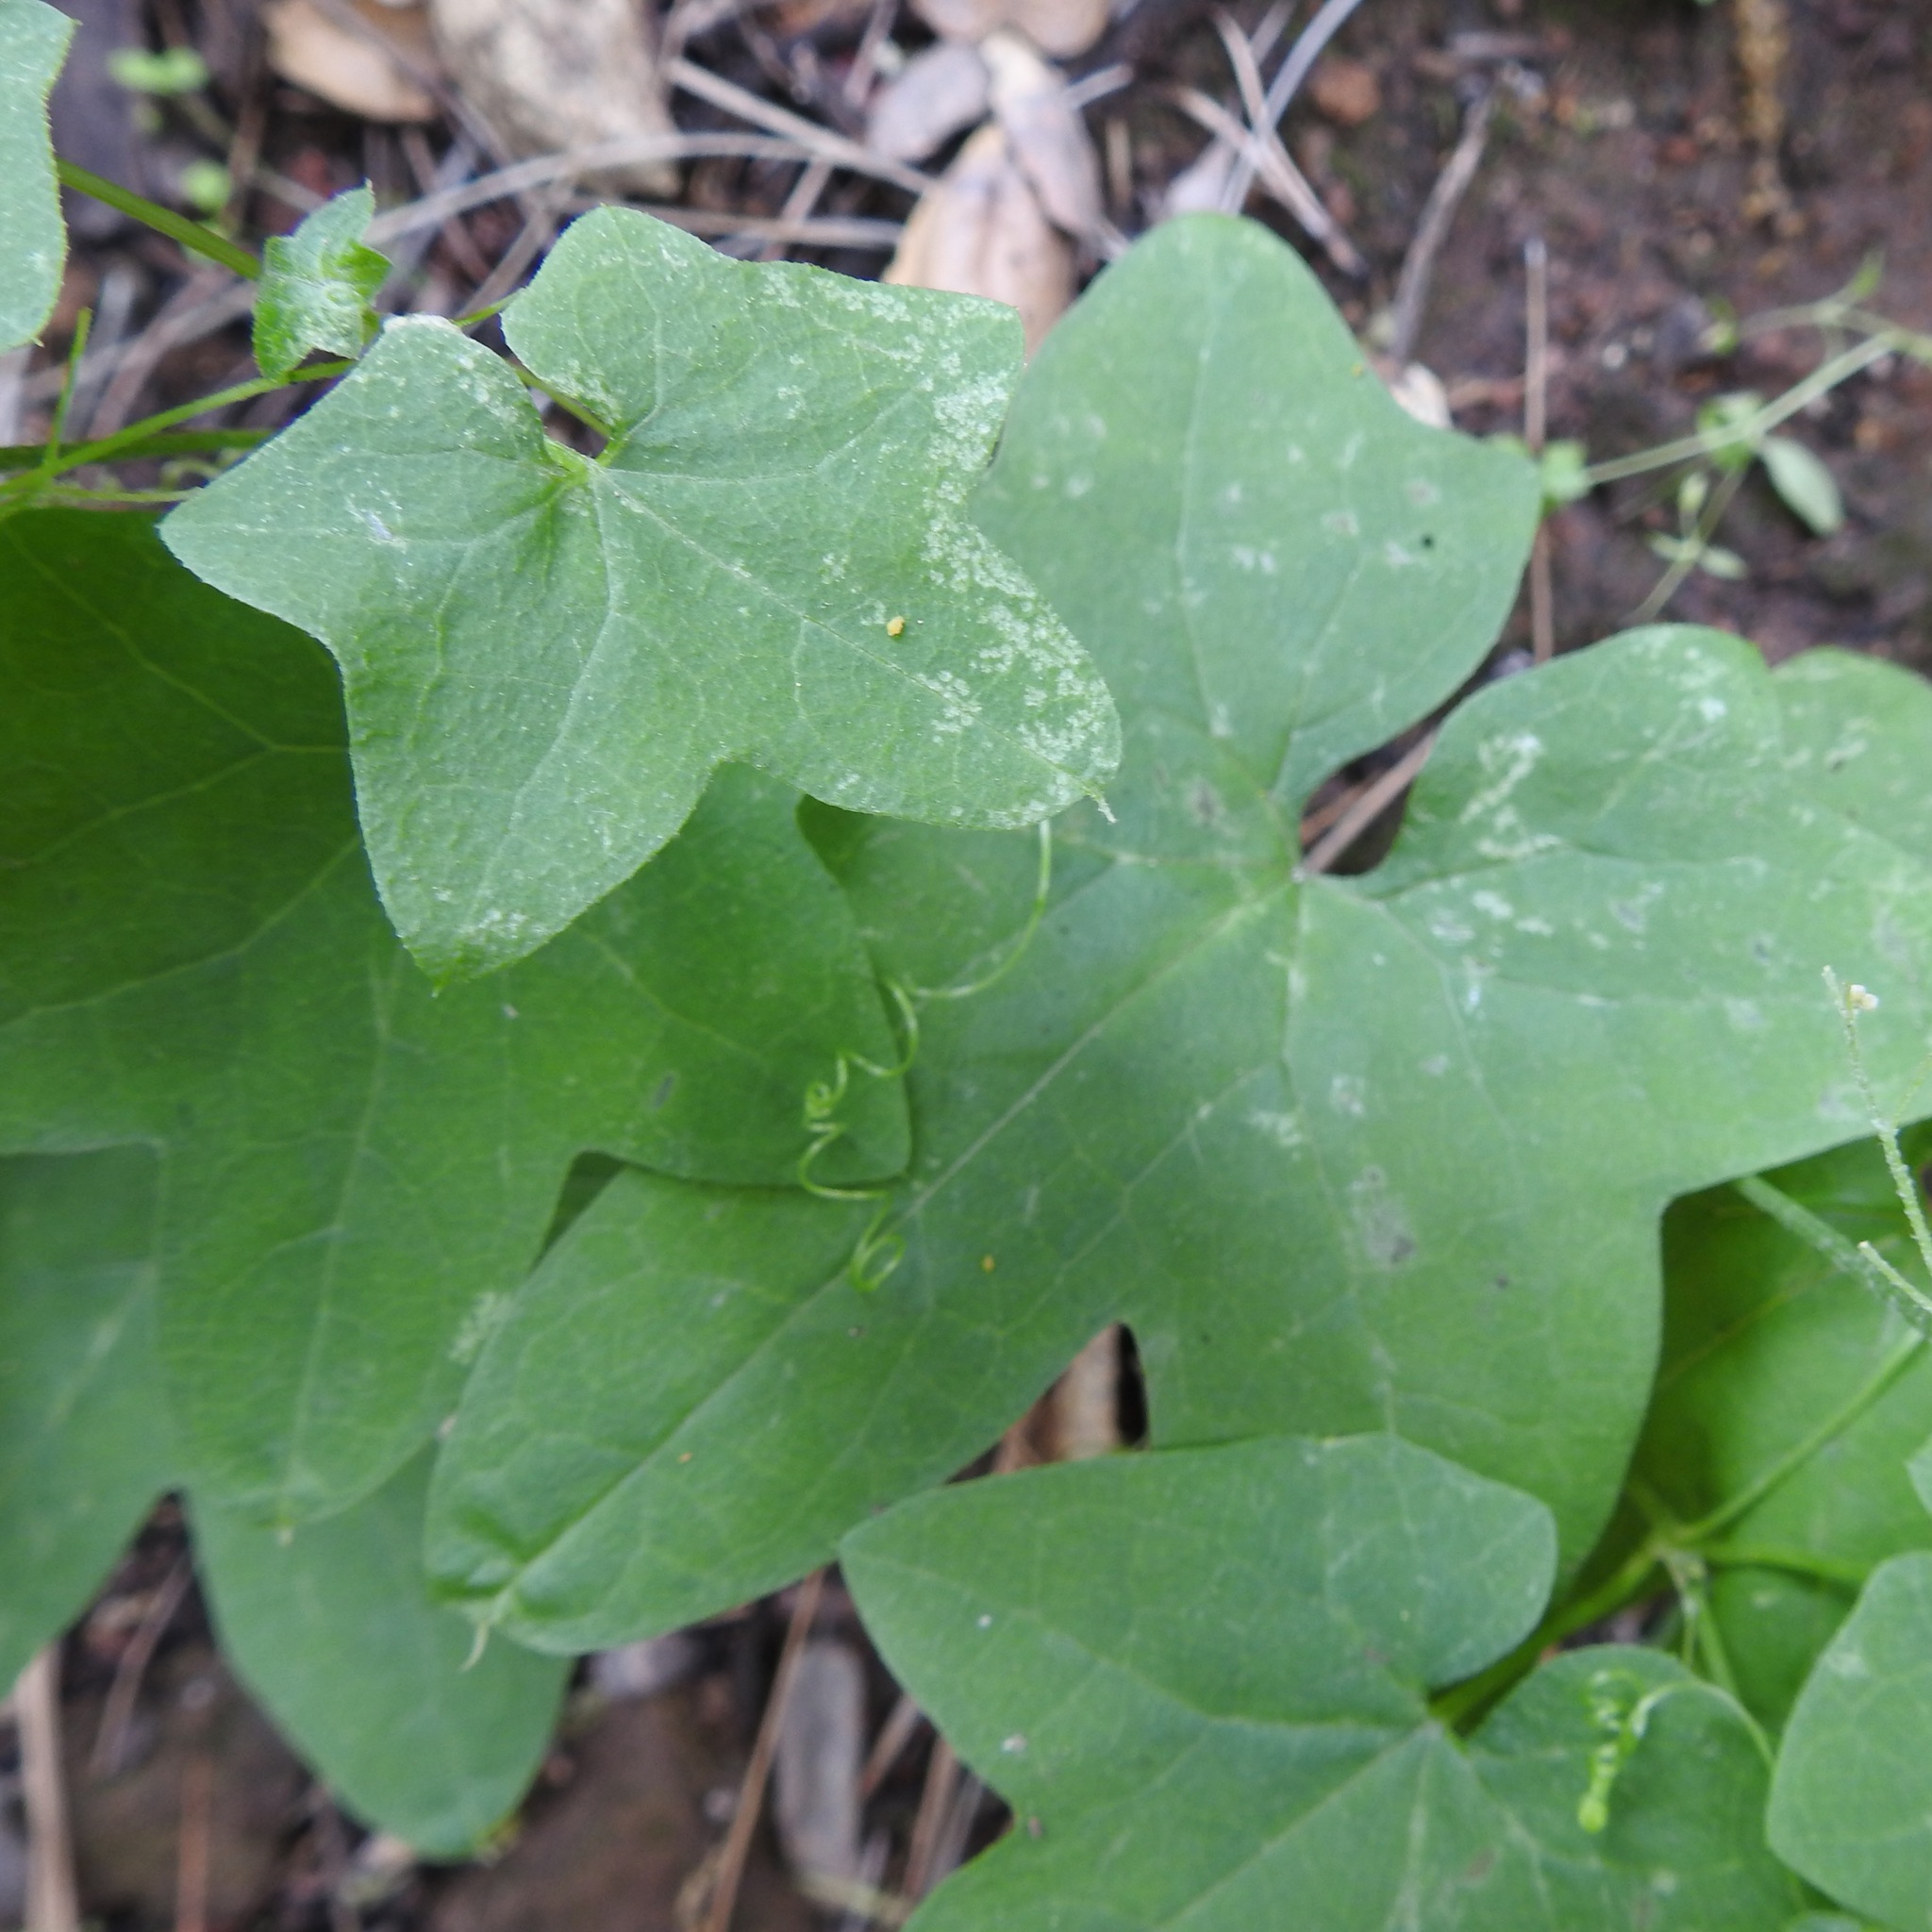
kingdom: Plantae
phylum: Tracheophyta
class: Magnoliopsida
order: Cucurbitales
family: Cucurbitaceae
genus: Marah
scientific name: Marah fabacea
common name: California manroot
